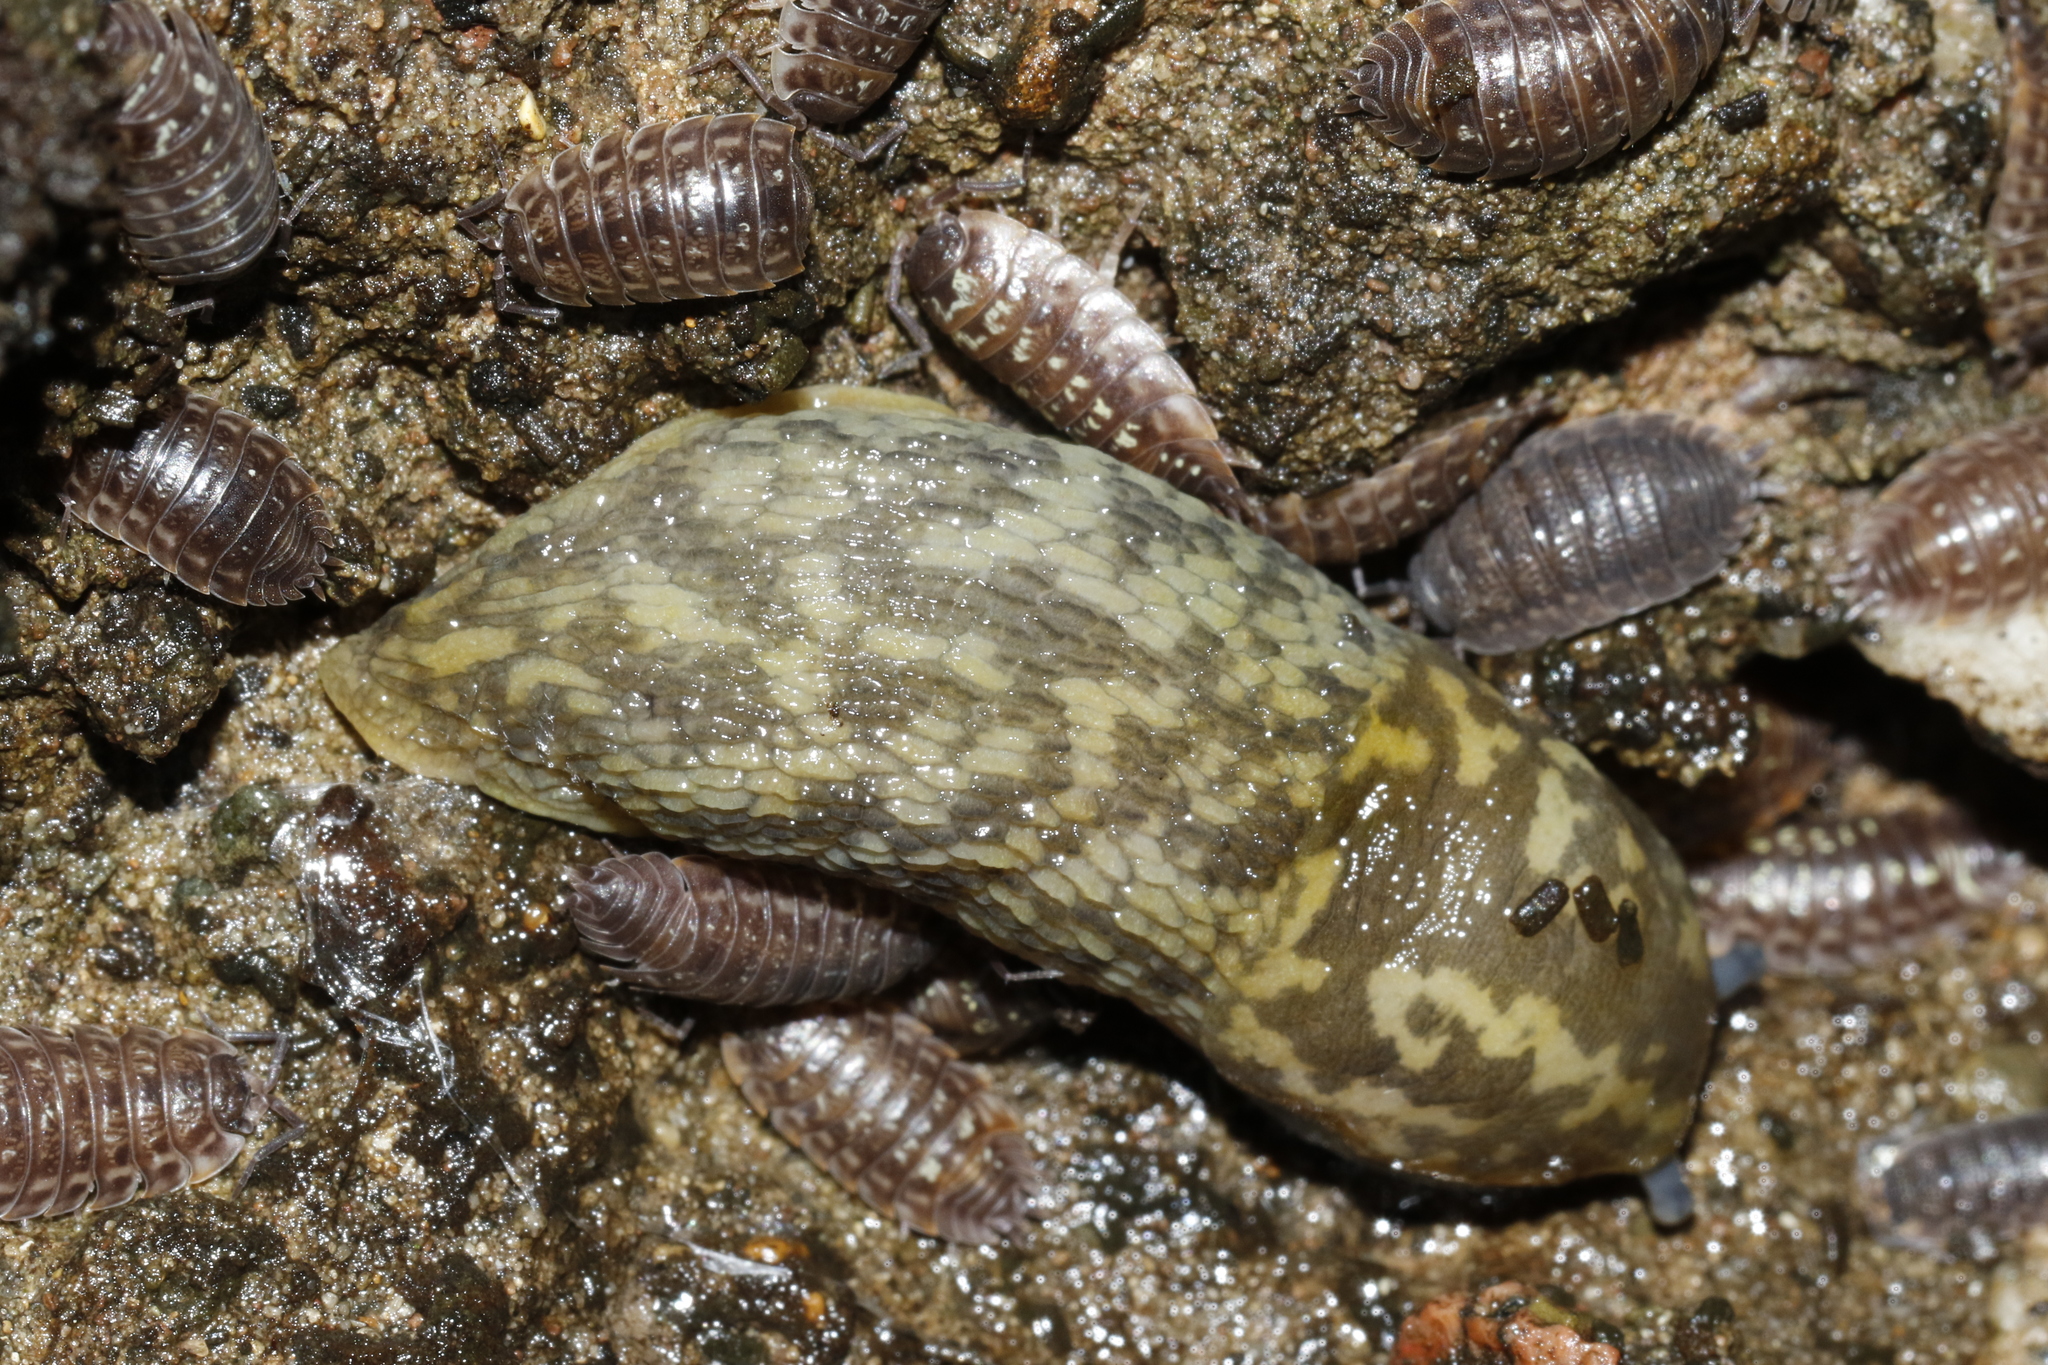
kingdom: Animalia
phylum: Mollusca
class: Gastropoda
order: Stylommatophora
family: Limacidae
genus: Limacus
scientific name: Limacus maculatus
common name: Irish yellow slug
